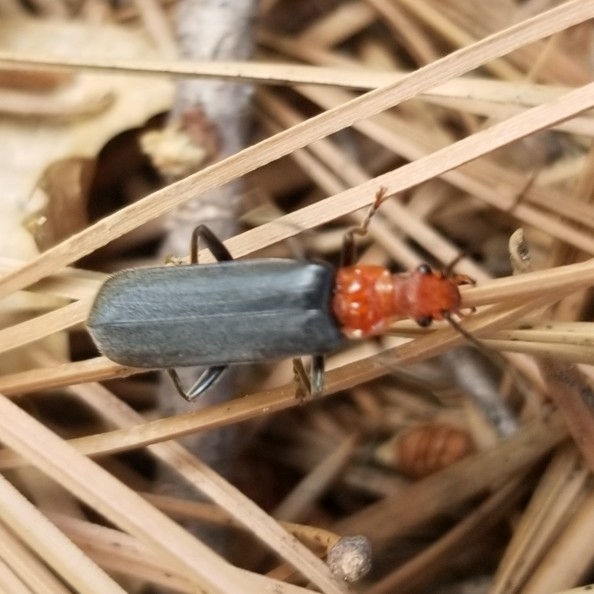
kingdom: Animalia
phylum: Arthropoda
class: Insecta
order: Coleoptera
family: Cantharidae
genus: Podabrus
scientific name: Podabrus pruinosus
